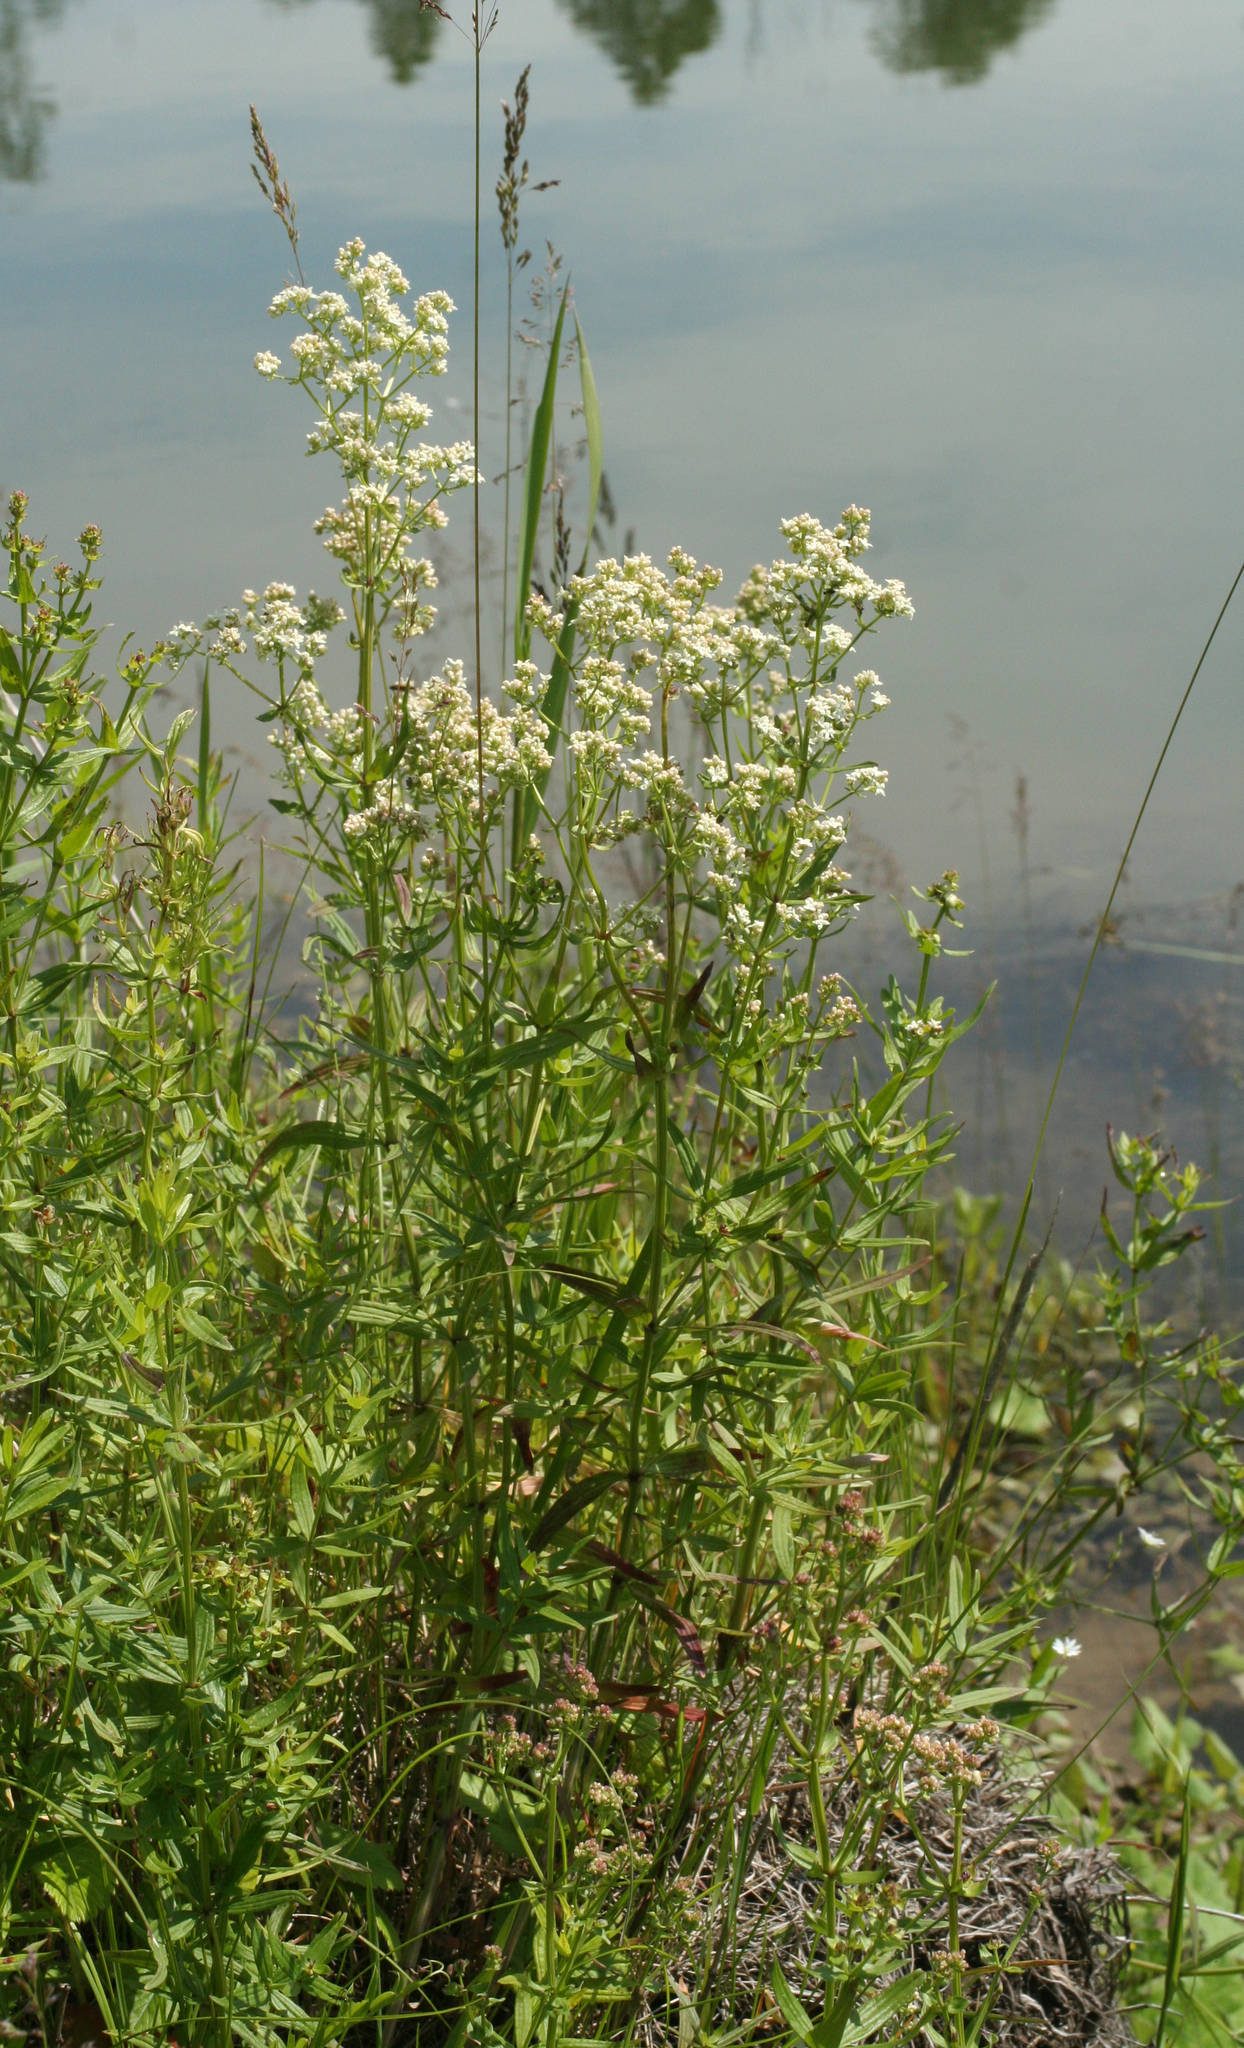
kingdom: Plantae
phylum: Tracheophyta
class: Magnoliopsida
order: Gentianales
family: Rubiaceae
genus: Galium
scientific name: Galium boreale
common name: Northern bedstraw
